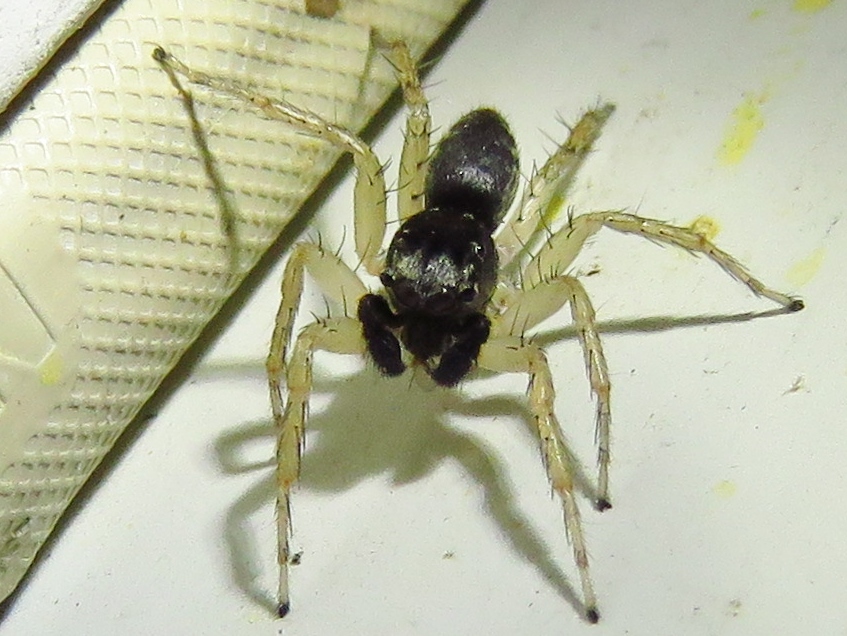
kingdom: Animalia
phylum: Arthropoda
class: Arachnida
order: Araneae
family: Salticidae
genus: Maevia
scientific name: Maevia inclemens
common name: Dimorphic jumper
